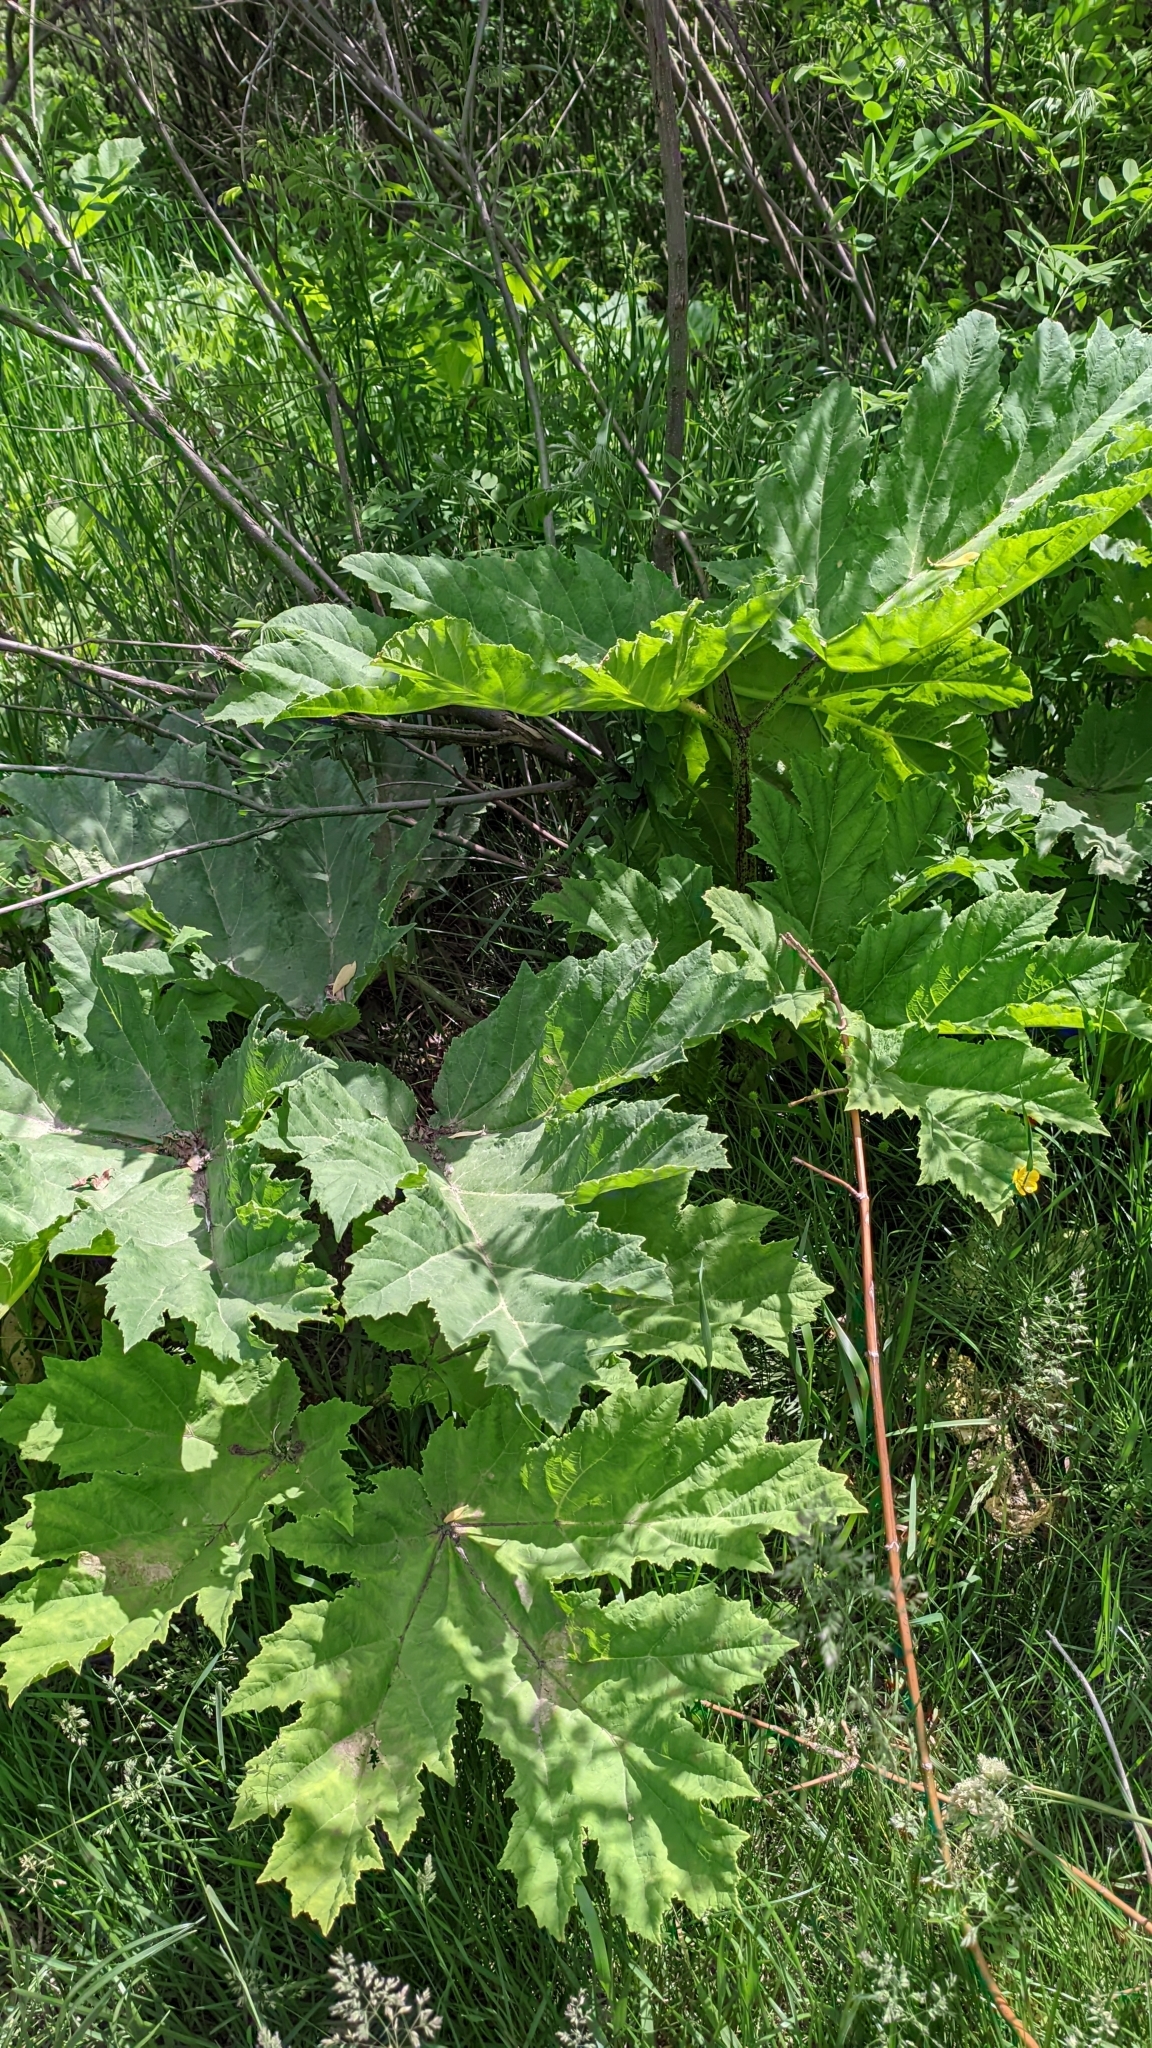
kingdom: Plantae
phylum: Tracheophyta
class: Magnoliopsida
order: Apiales
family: Apiaceae
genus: Heracleum
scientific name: Heracleum sosnowskyi
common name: Sosnowsky's hogweed
